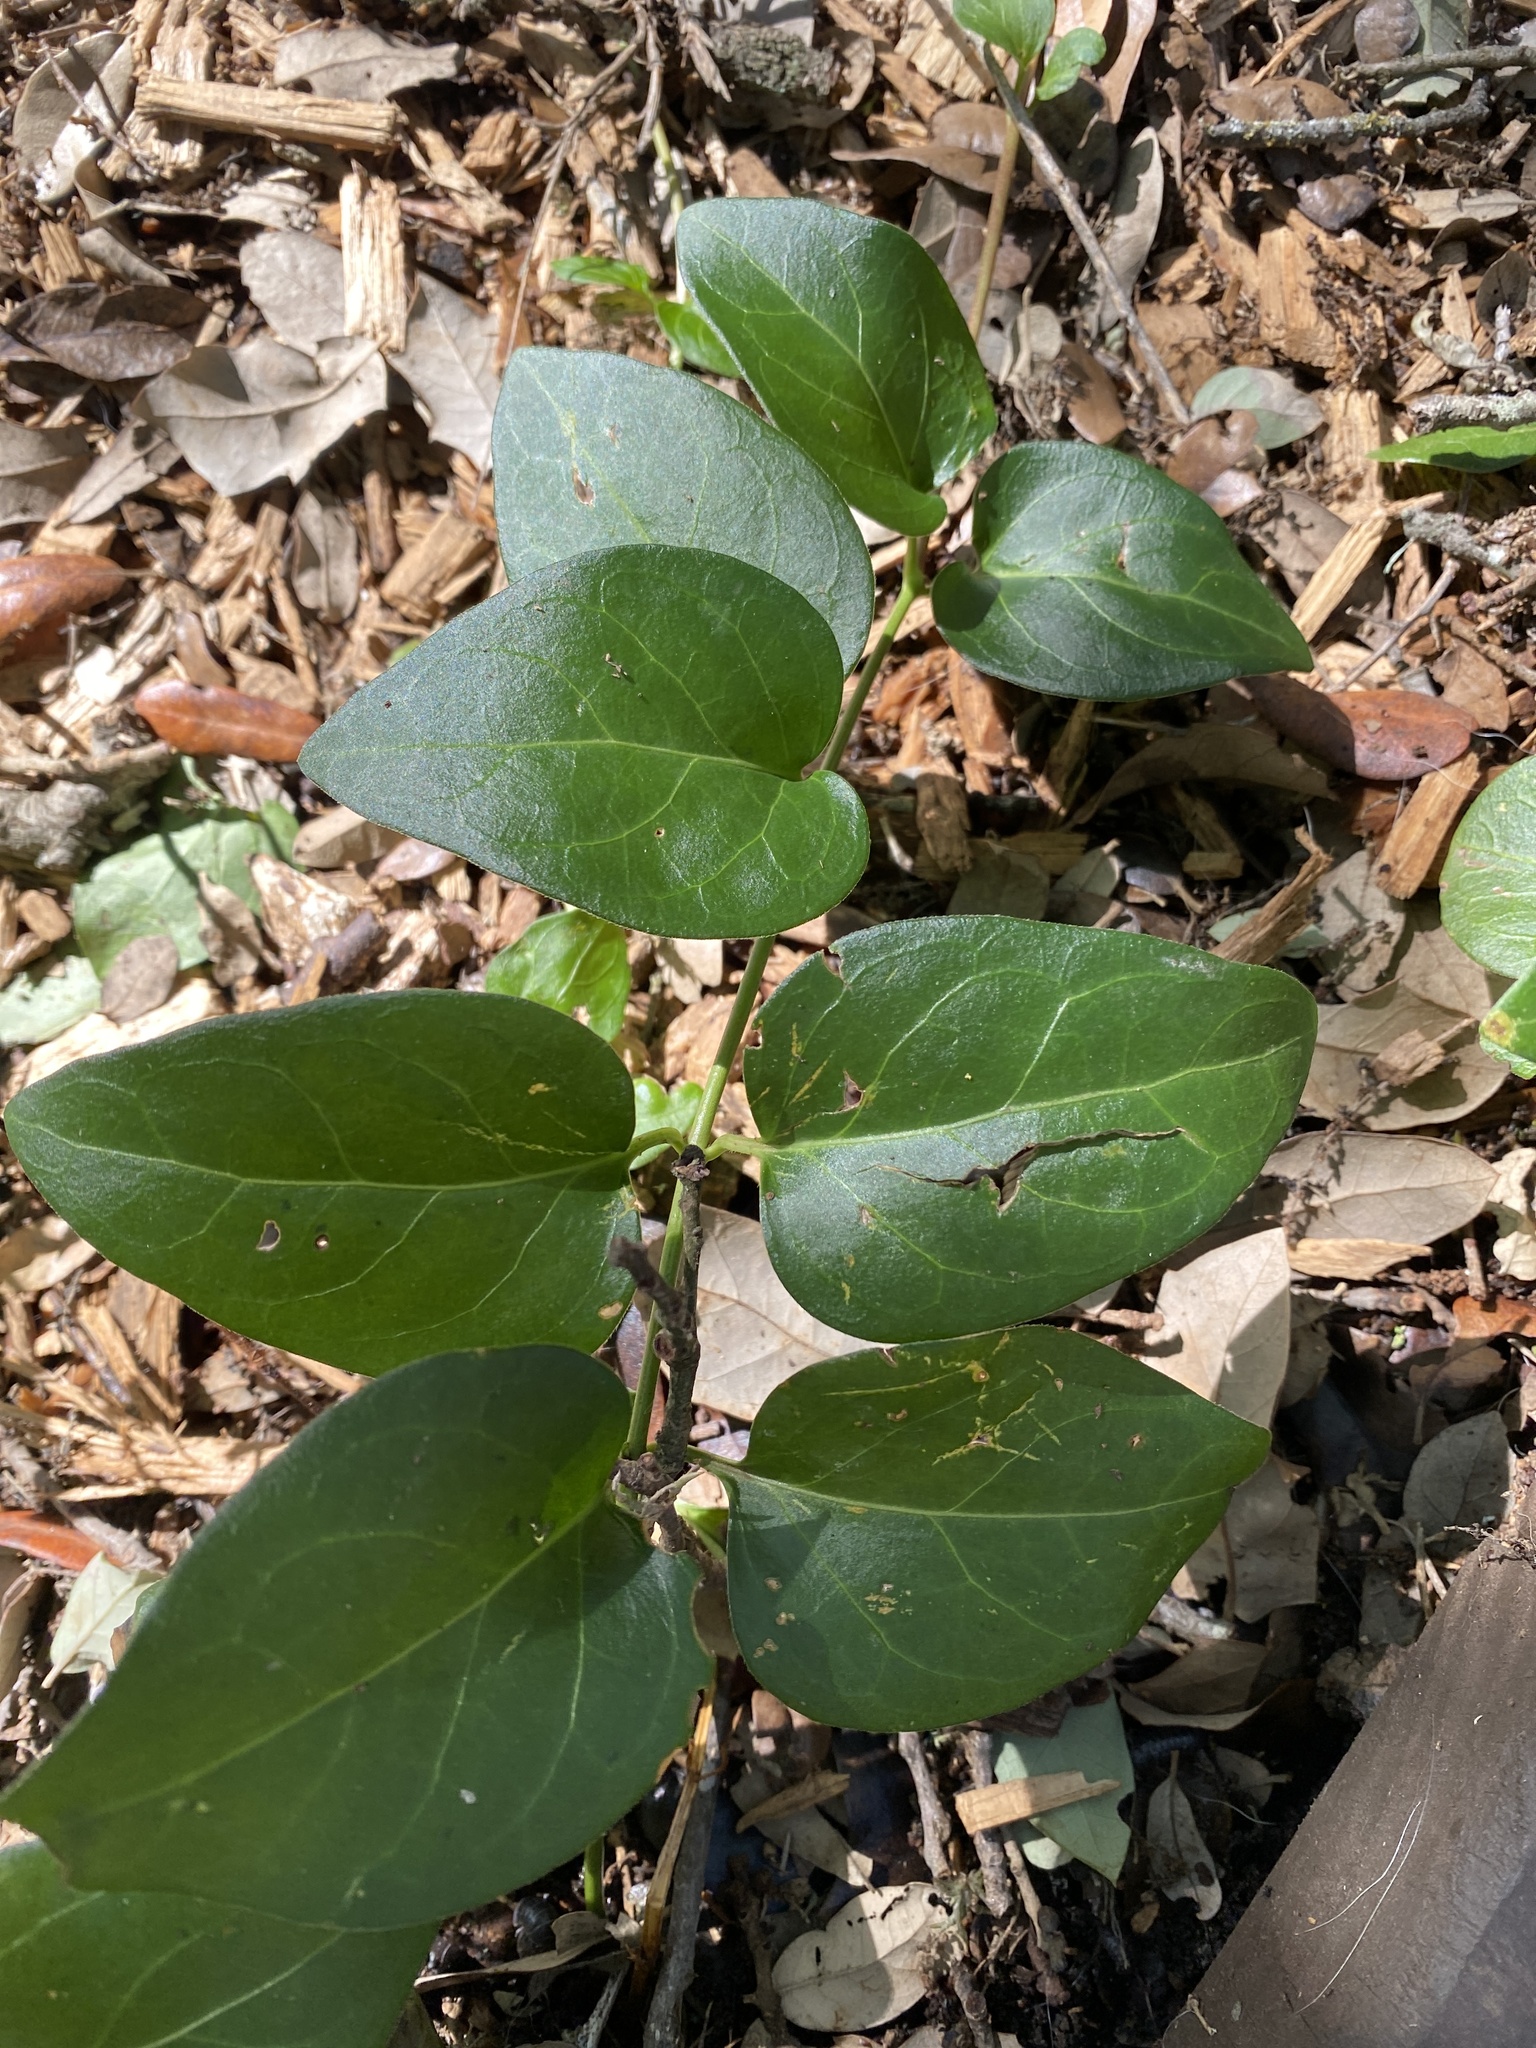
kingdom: Plantae
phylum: Tracheophyta
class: Magnoliopsida
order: Gentianales
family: Apocynaceae
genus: Vinca
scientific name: Vinca major
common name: Greater periwinkle
